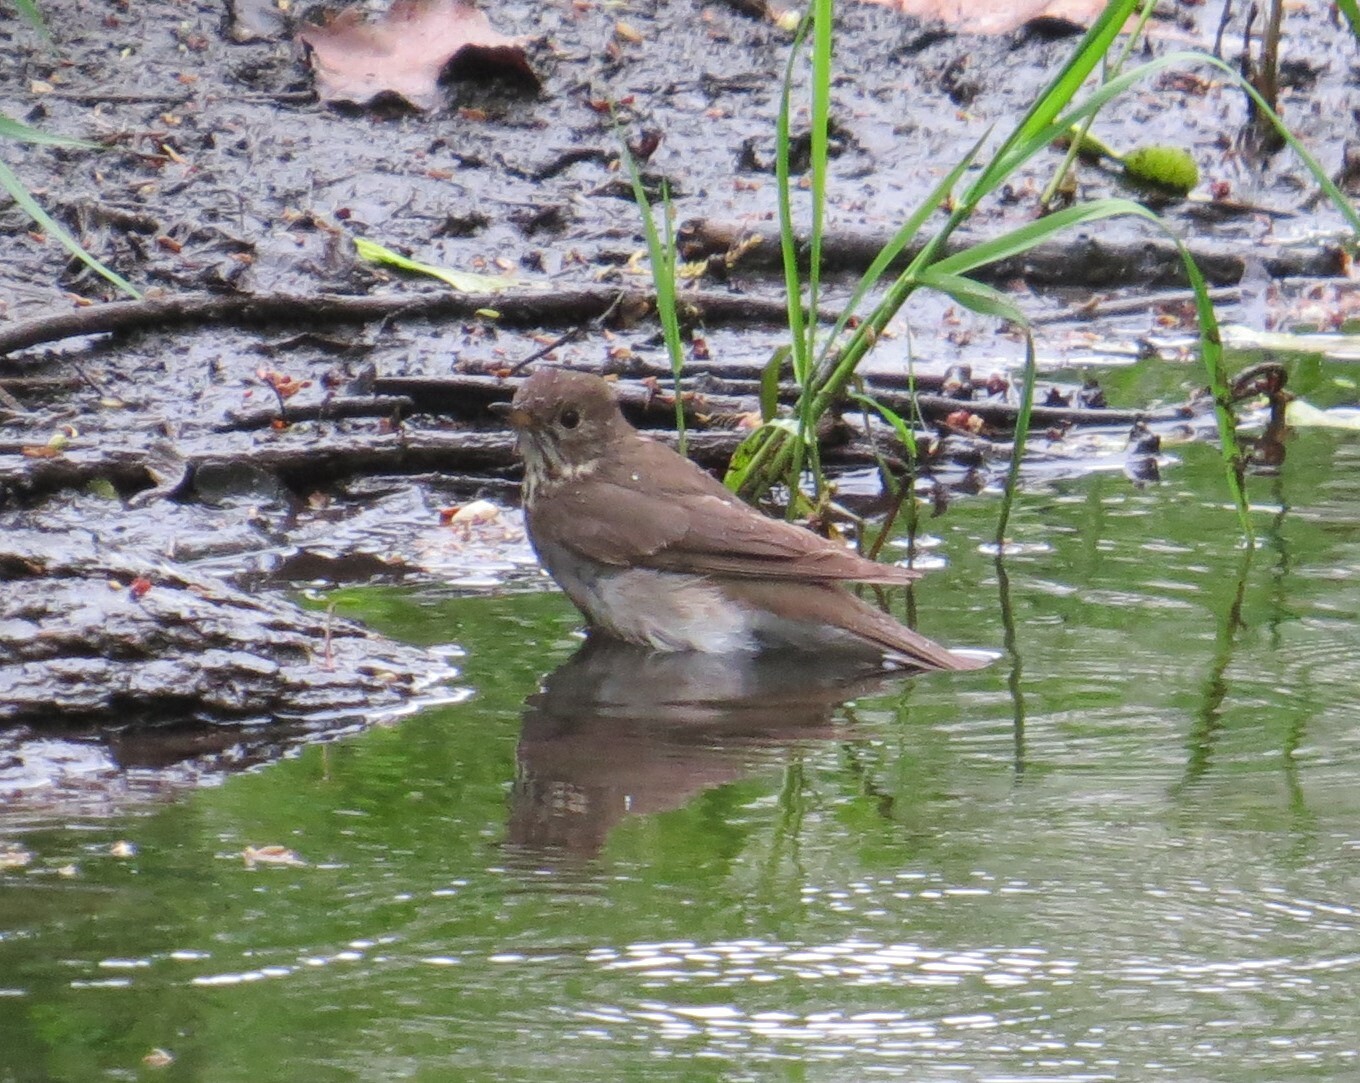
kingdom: Animalia
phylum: Chordata
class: Aves
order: Passeriformes
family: Turdidae
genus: Catharus
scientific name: Catharus minimus
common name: Grey-cheeked thrush
